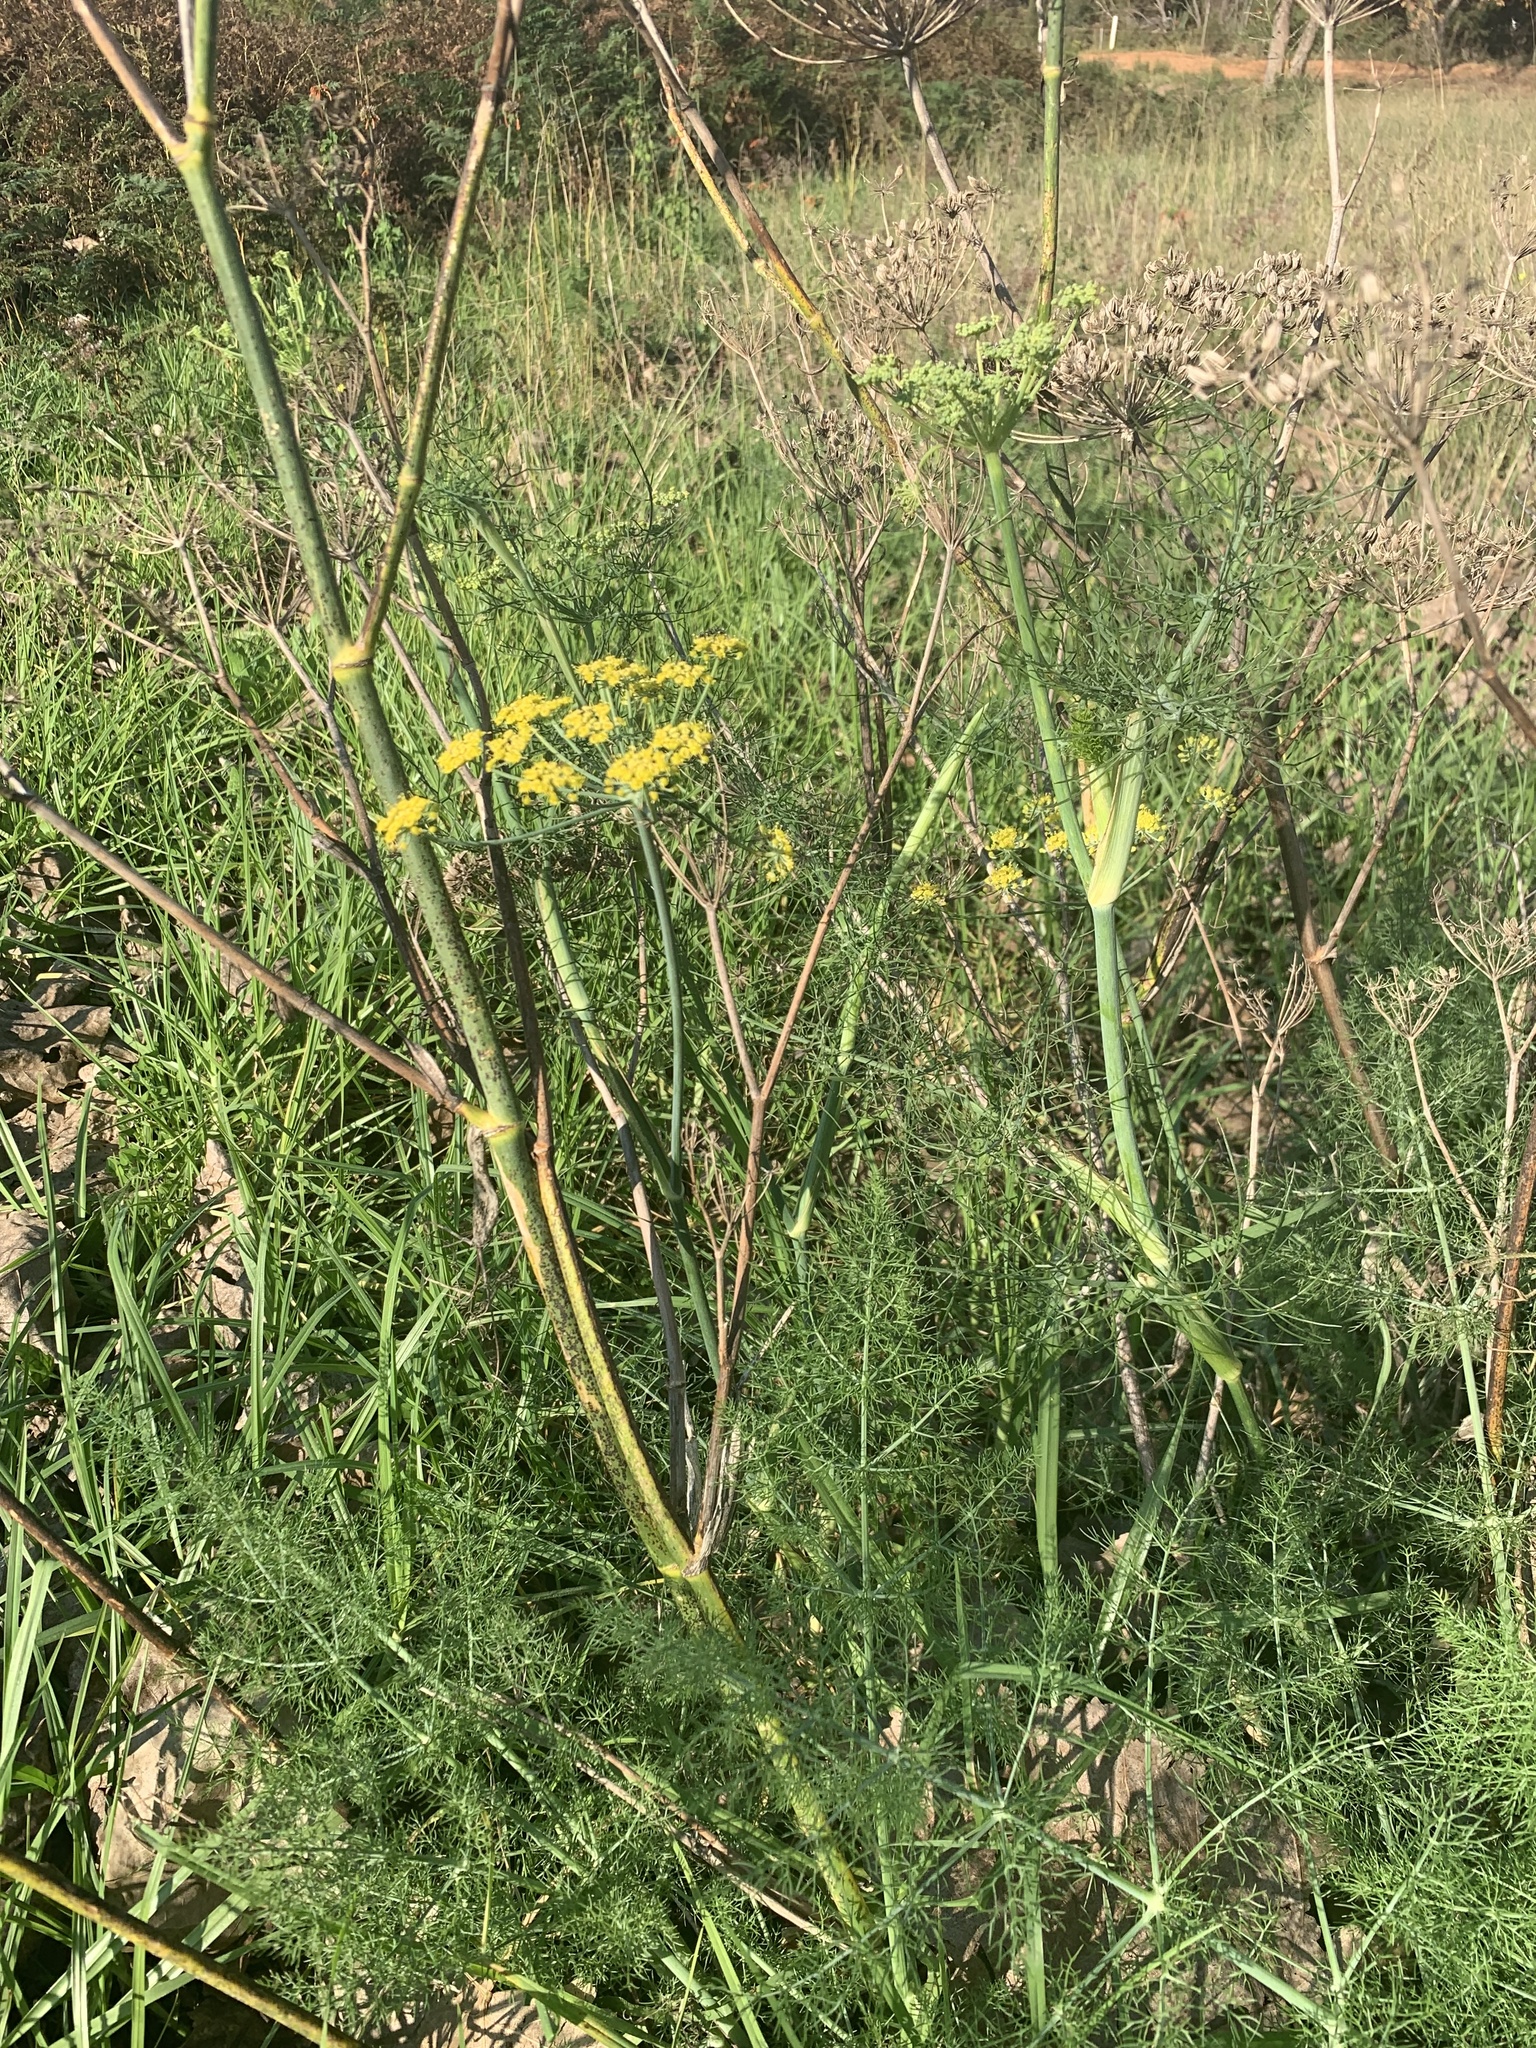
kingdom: Plantae
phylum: Tracheophyta
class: Magnoliopsida
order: Apiales
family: Apiaceae
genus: Foeniculum
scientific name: Foeniculum vulgare
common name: Fennel
